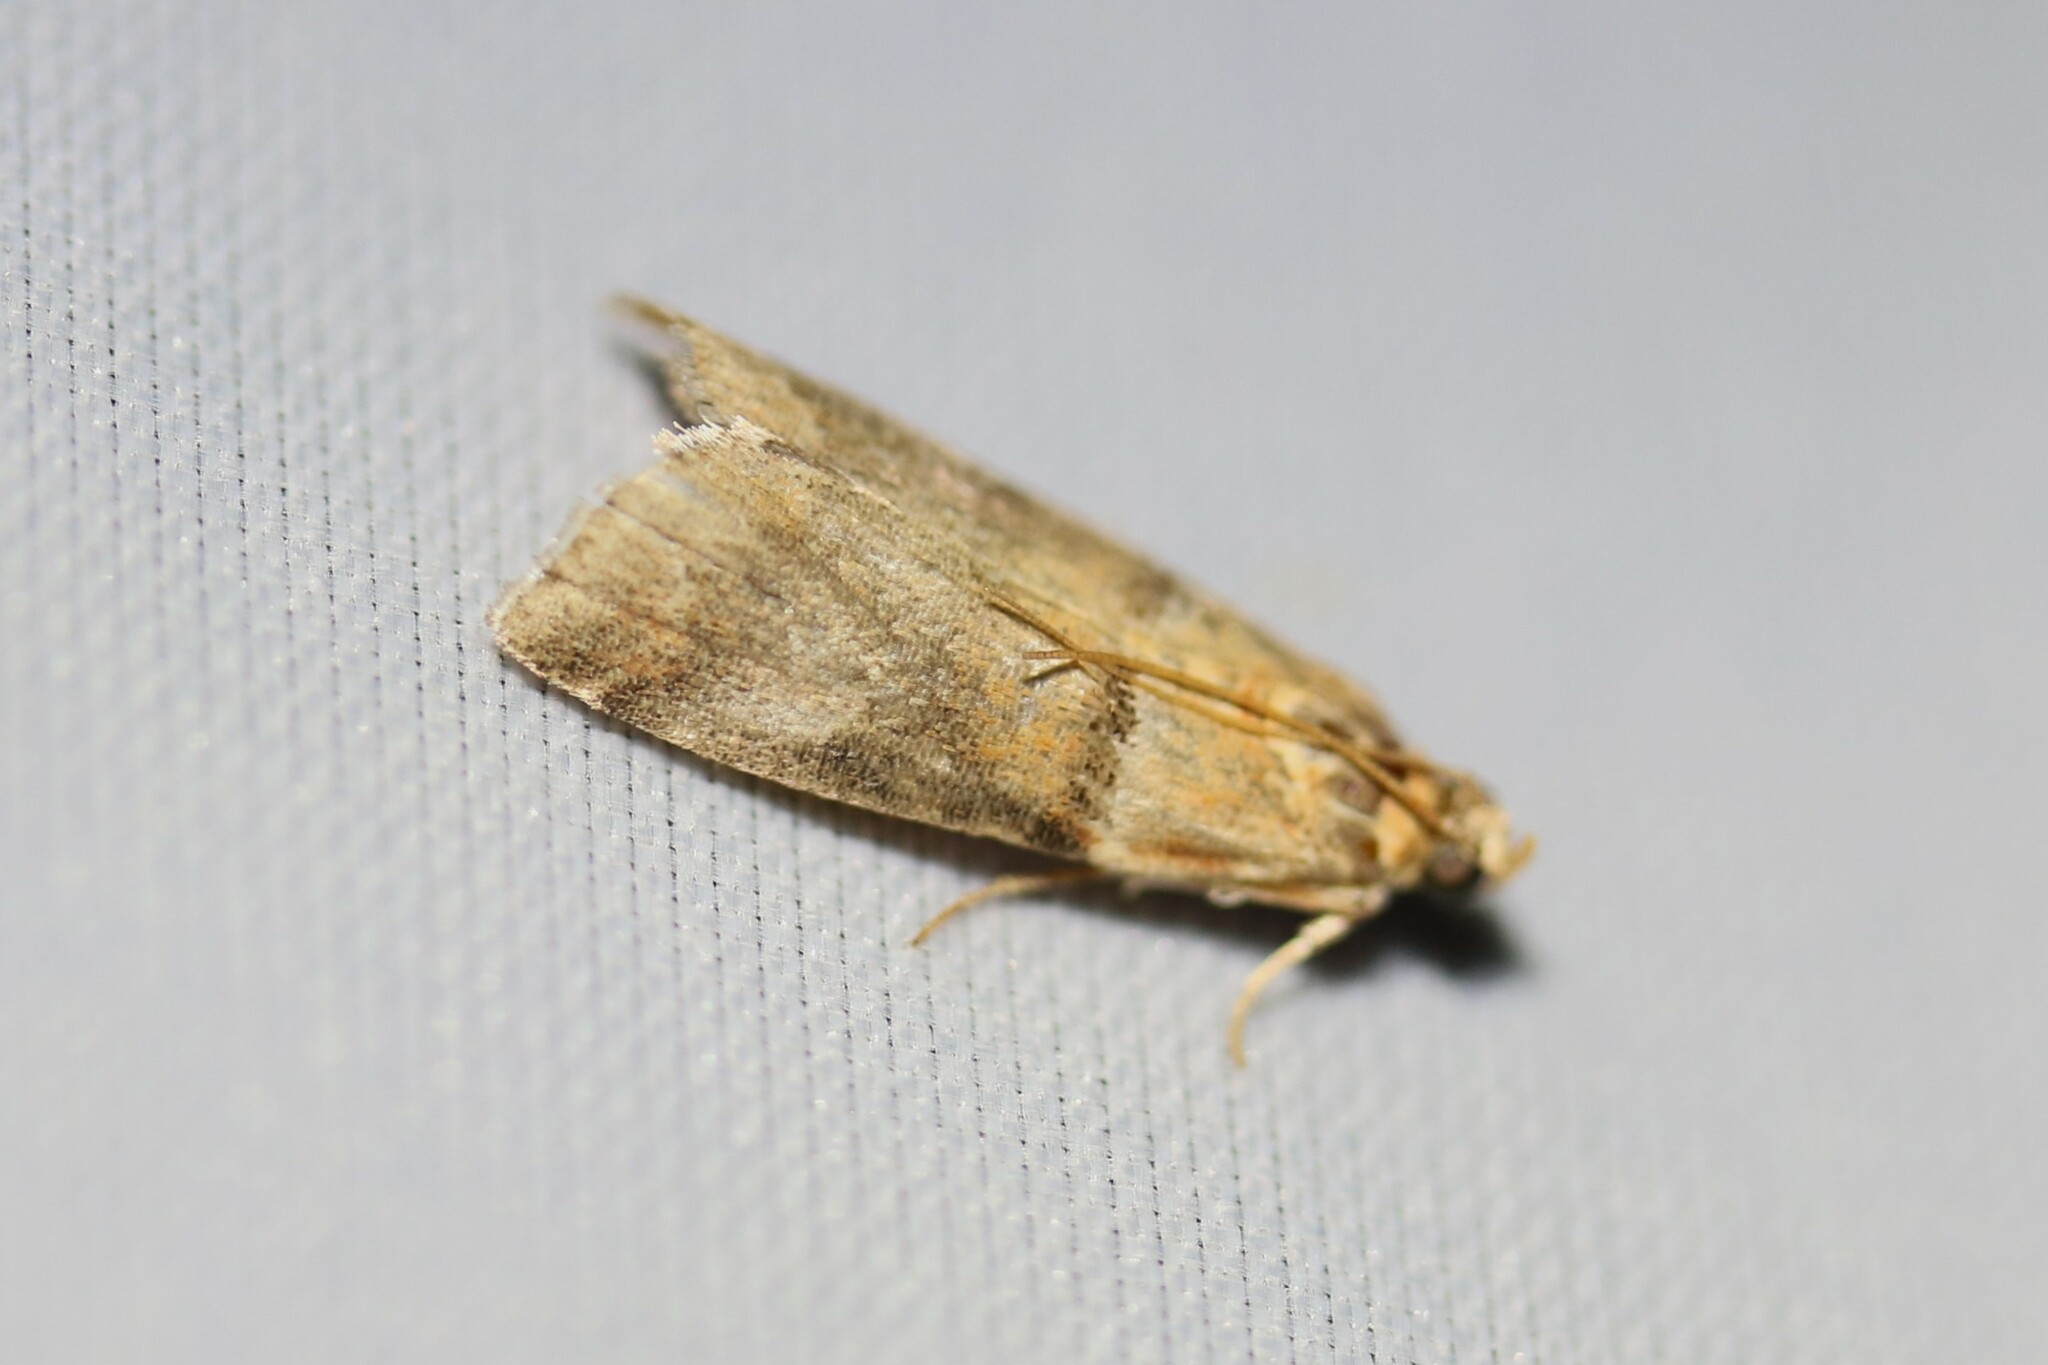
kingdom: Animalia
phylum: Arthropoda
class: Insecta
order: Lepidoptera
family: Pyralidae
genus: Acrobasis
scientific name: Acrobasis tumidana
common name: Scarce oak knot-horn
